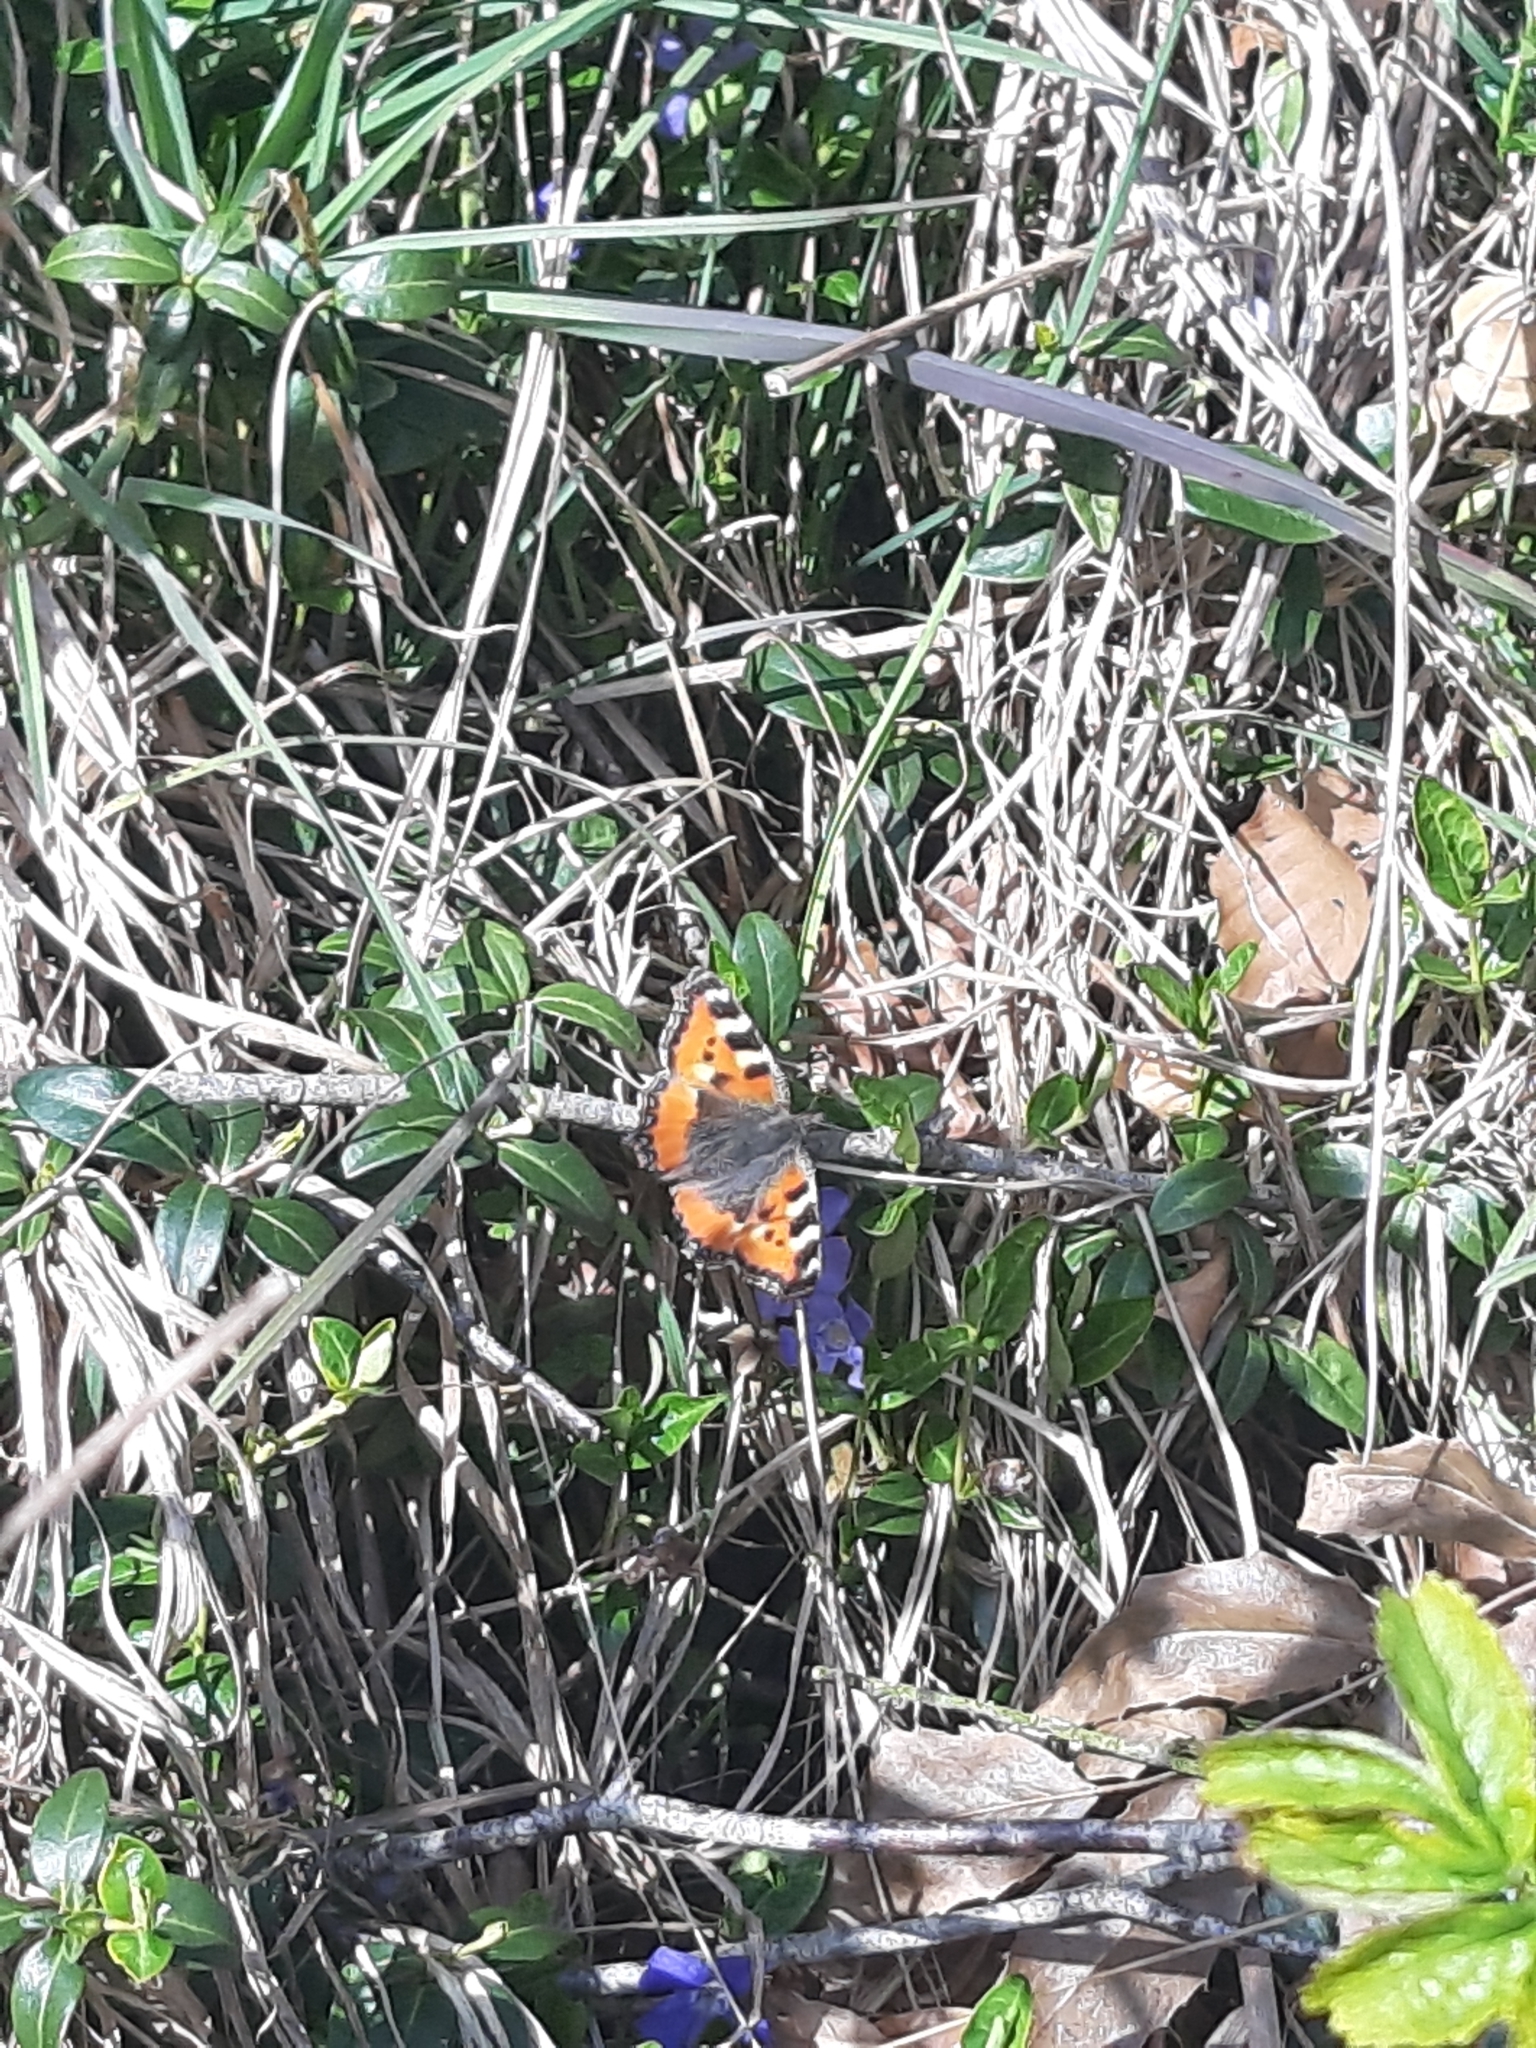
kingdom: Animalia
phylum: Arthropoda
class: Insecta
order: Lepidoptera
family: Nymphalidae
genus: Aglais
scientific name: Aglais urticae
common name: Small tortoiseshell
